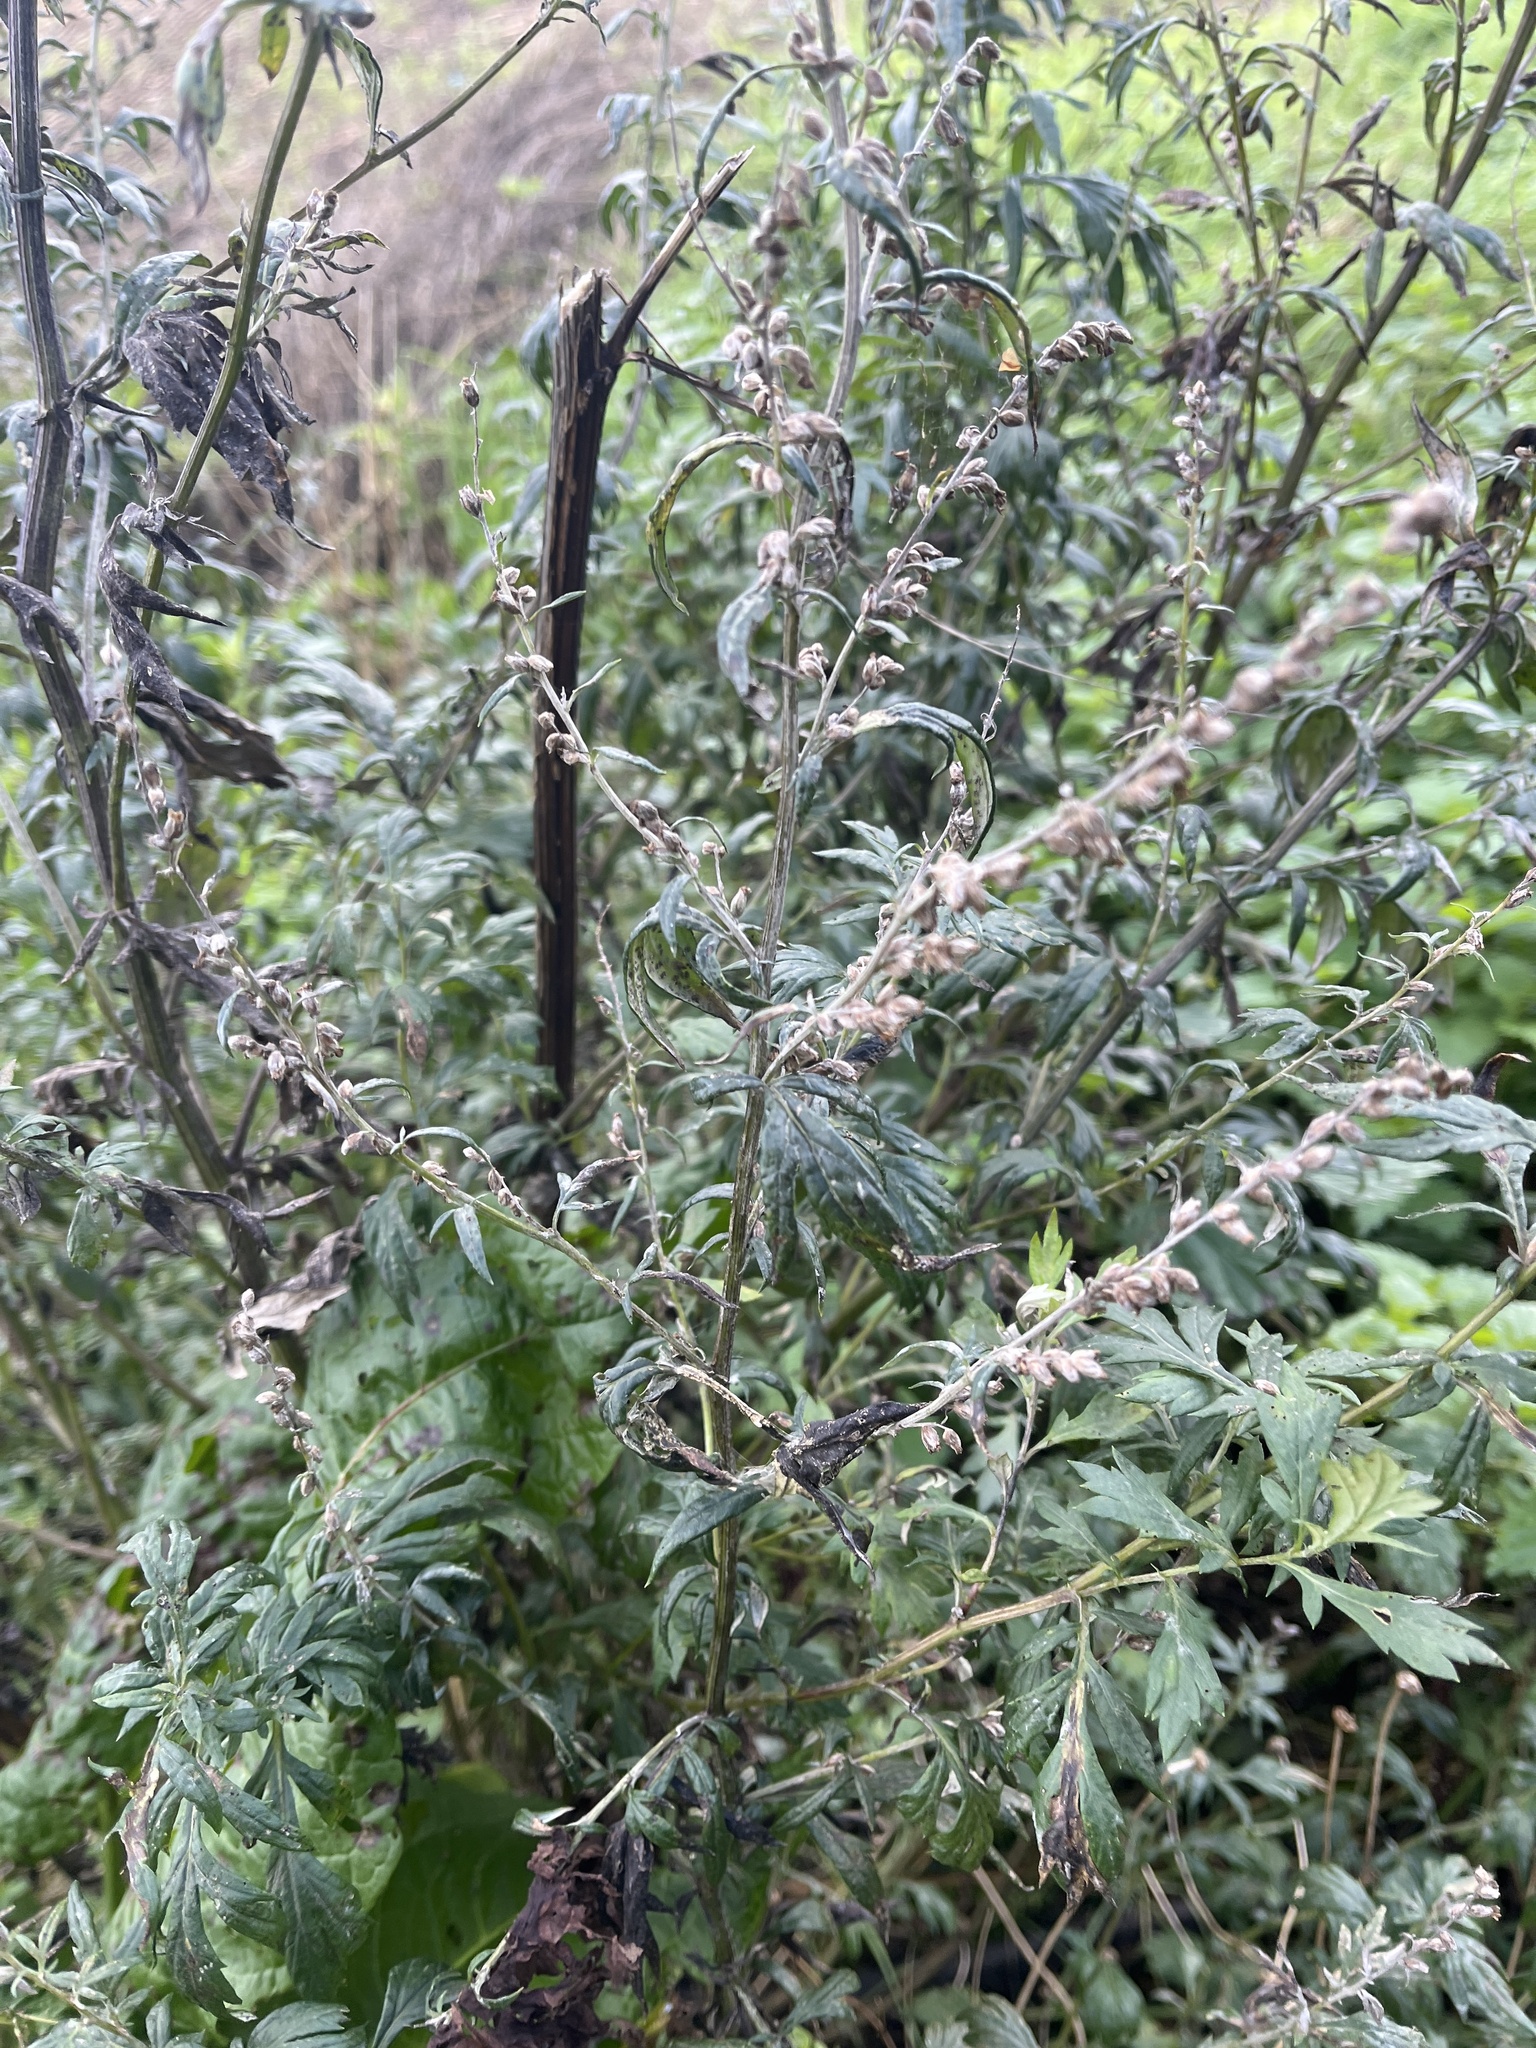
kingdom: Plantae
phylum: Tracheophyta
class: Magnoliopsida
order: Asterales
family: Asteraceae
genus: Artemisia
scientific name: Artemisia vulgaris
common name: Mugwort
